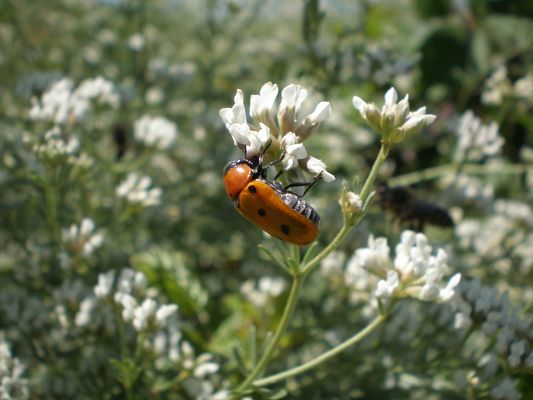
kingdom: Animalia
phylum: Arthropoda
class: Insecta
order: Coleoptera
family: Chrysomelidae
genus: Tituboea
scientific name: Tituboea biguttata
